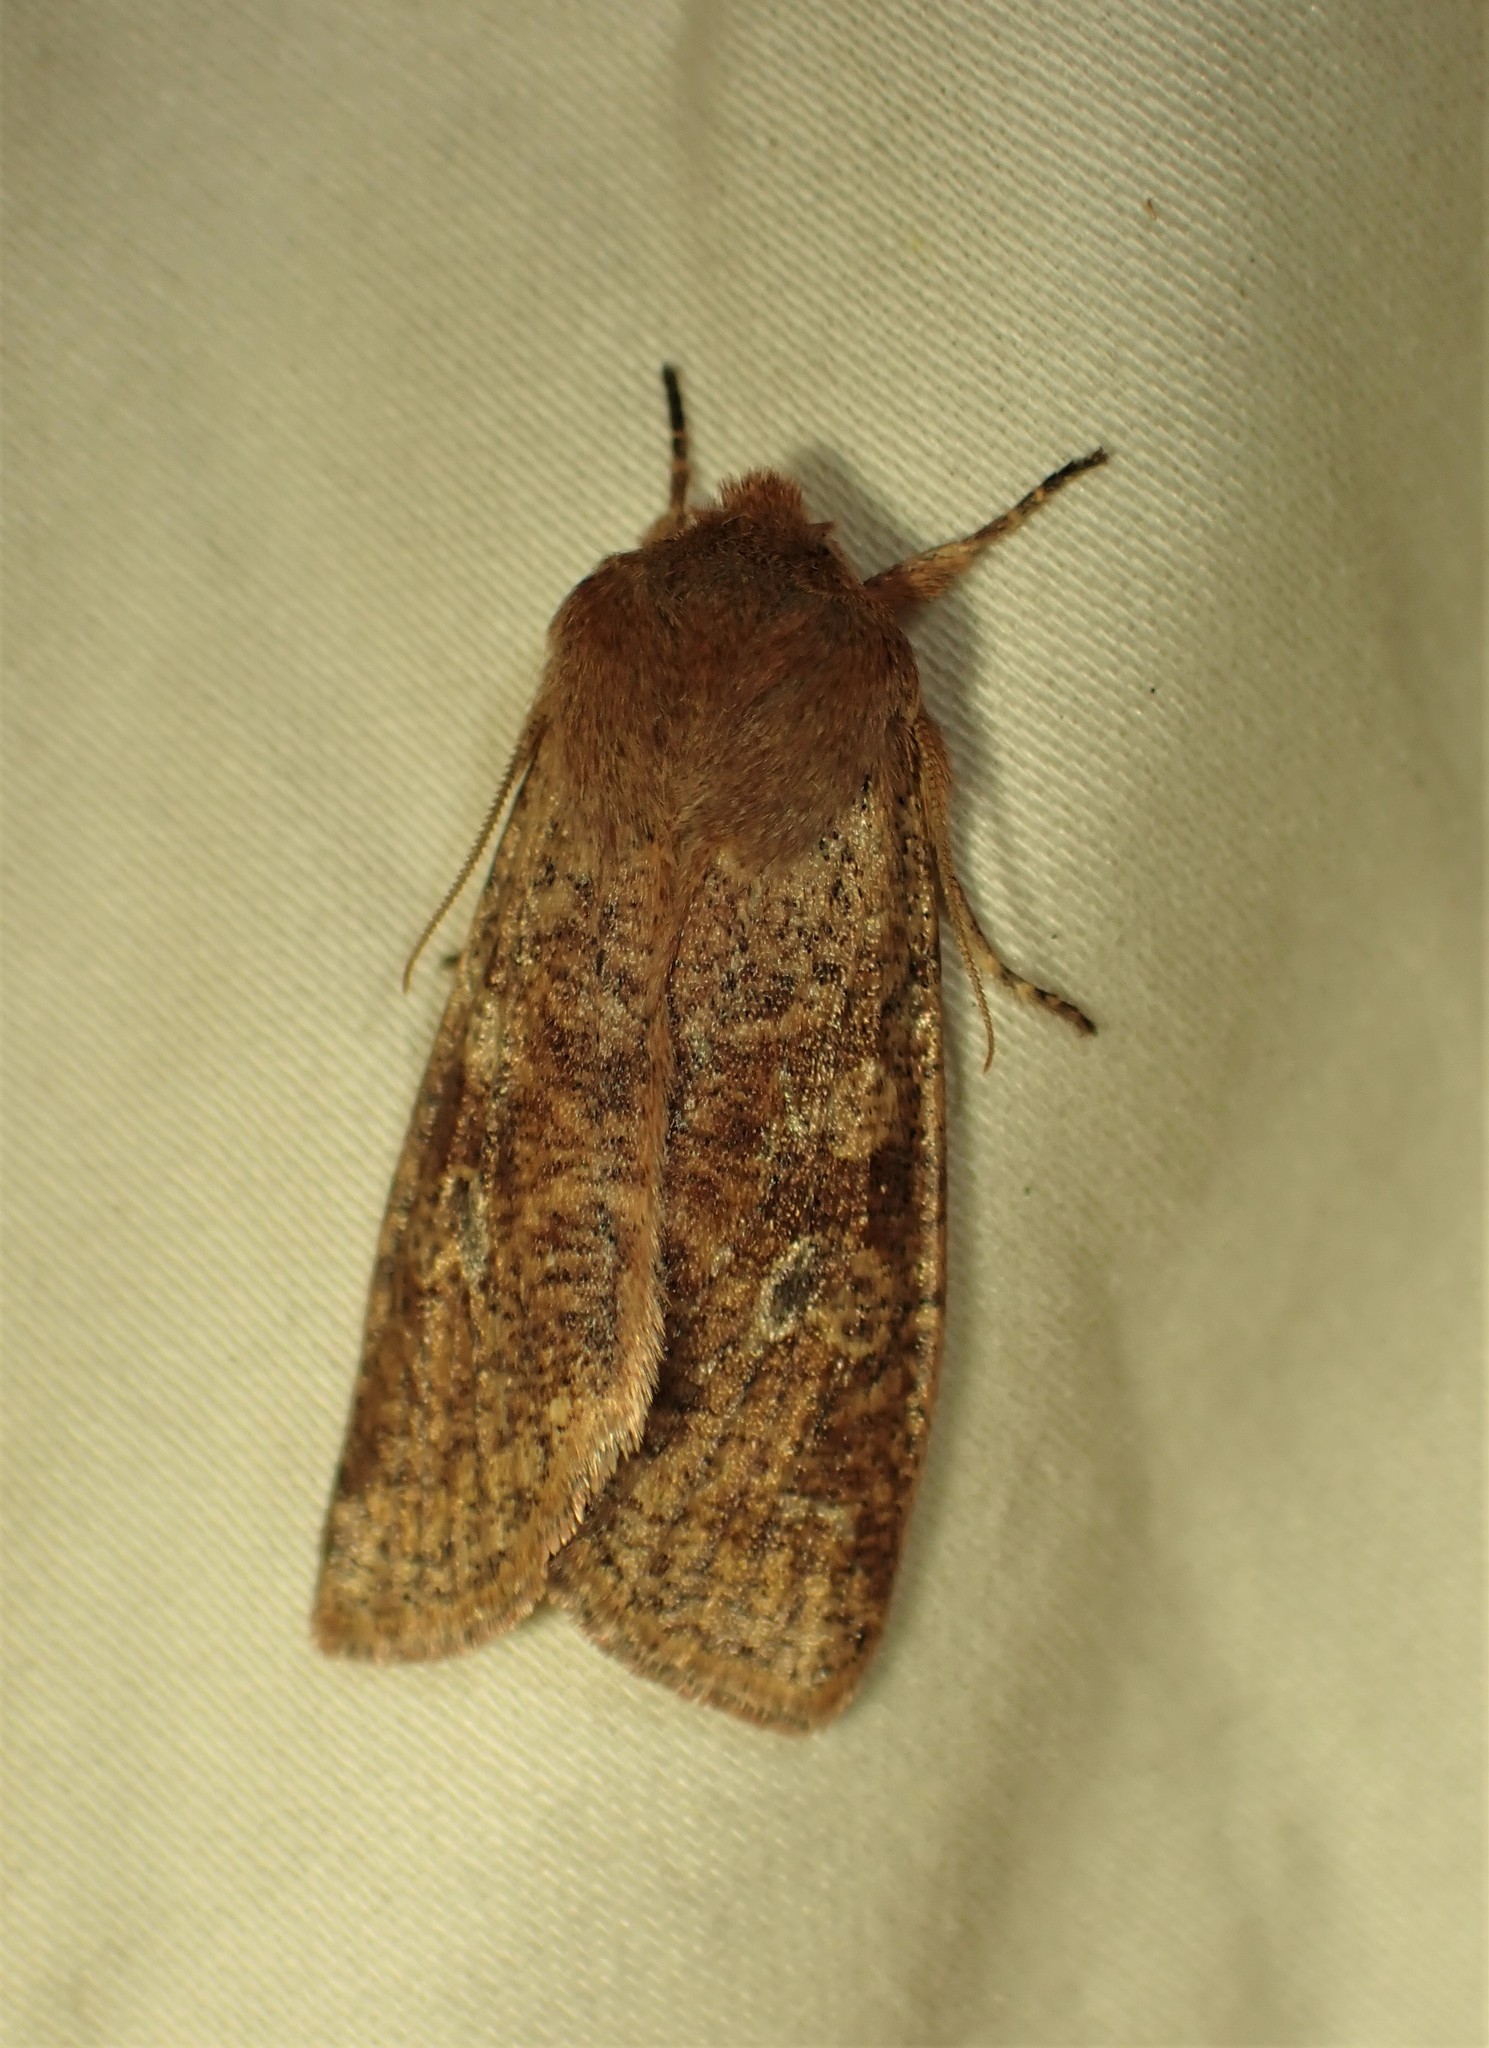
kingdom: Animalia
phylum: Arthropoda
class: Insecta
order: Lepidoptera
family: Noctuidae
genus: Orthosia
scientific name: Orthosia rubescens
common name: Ruby quaker
